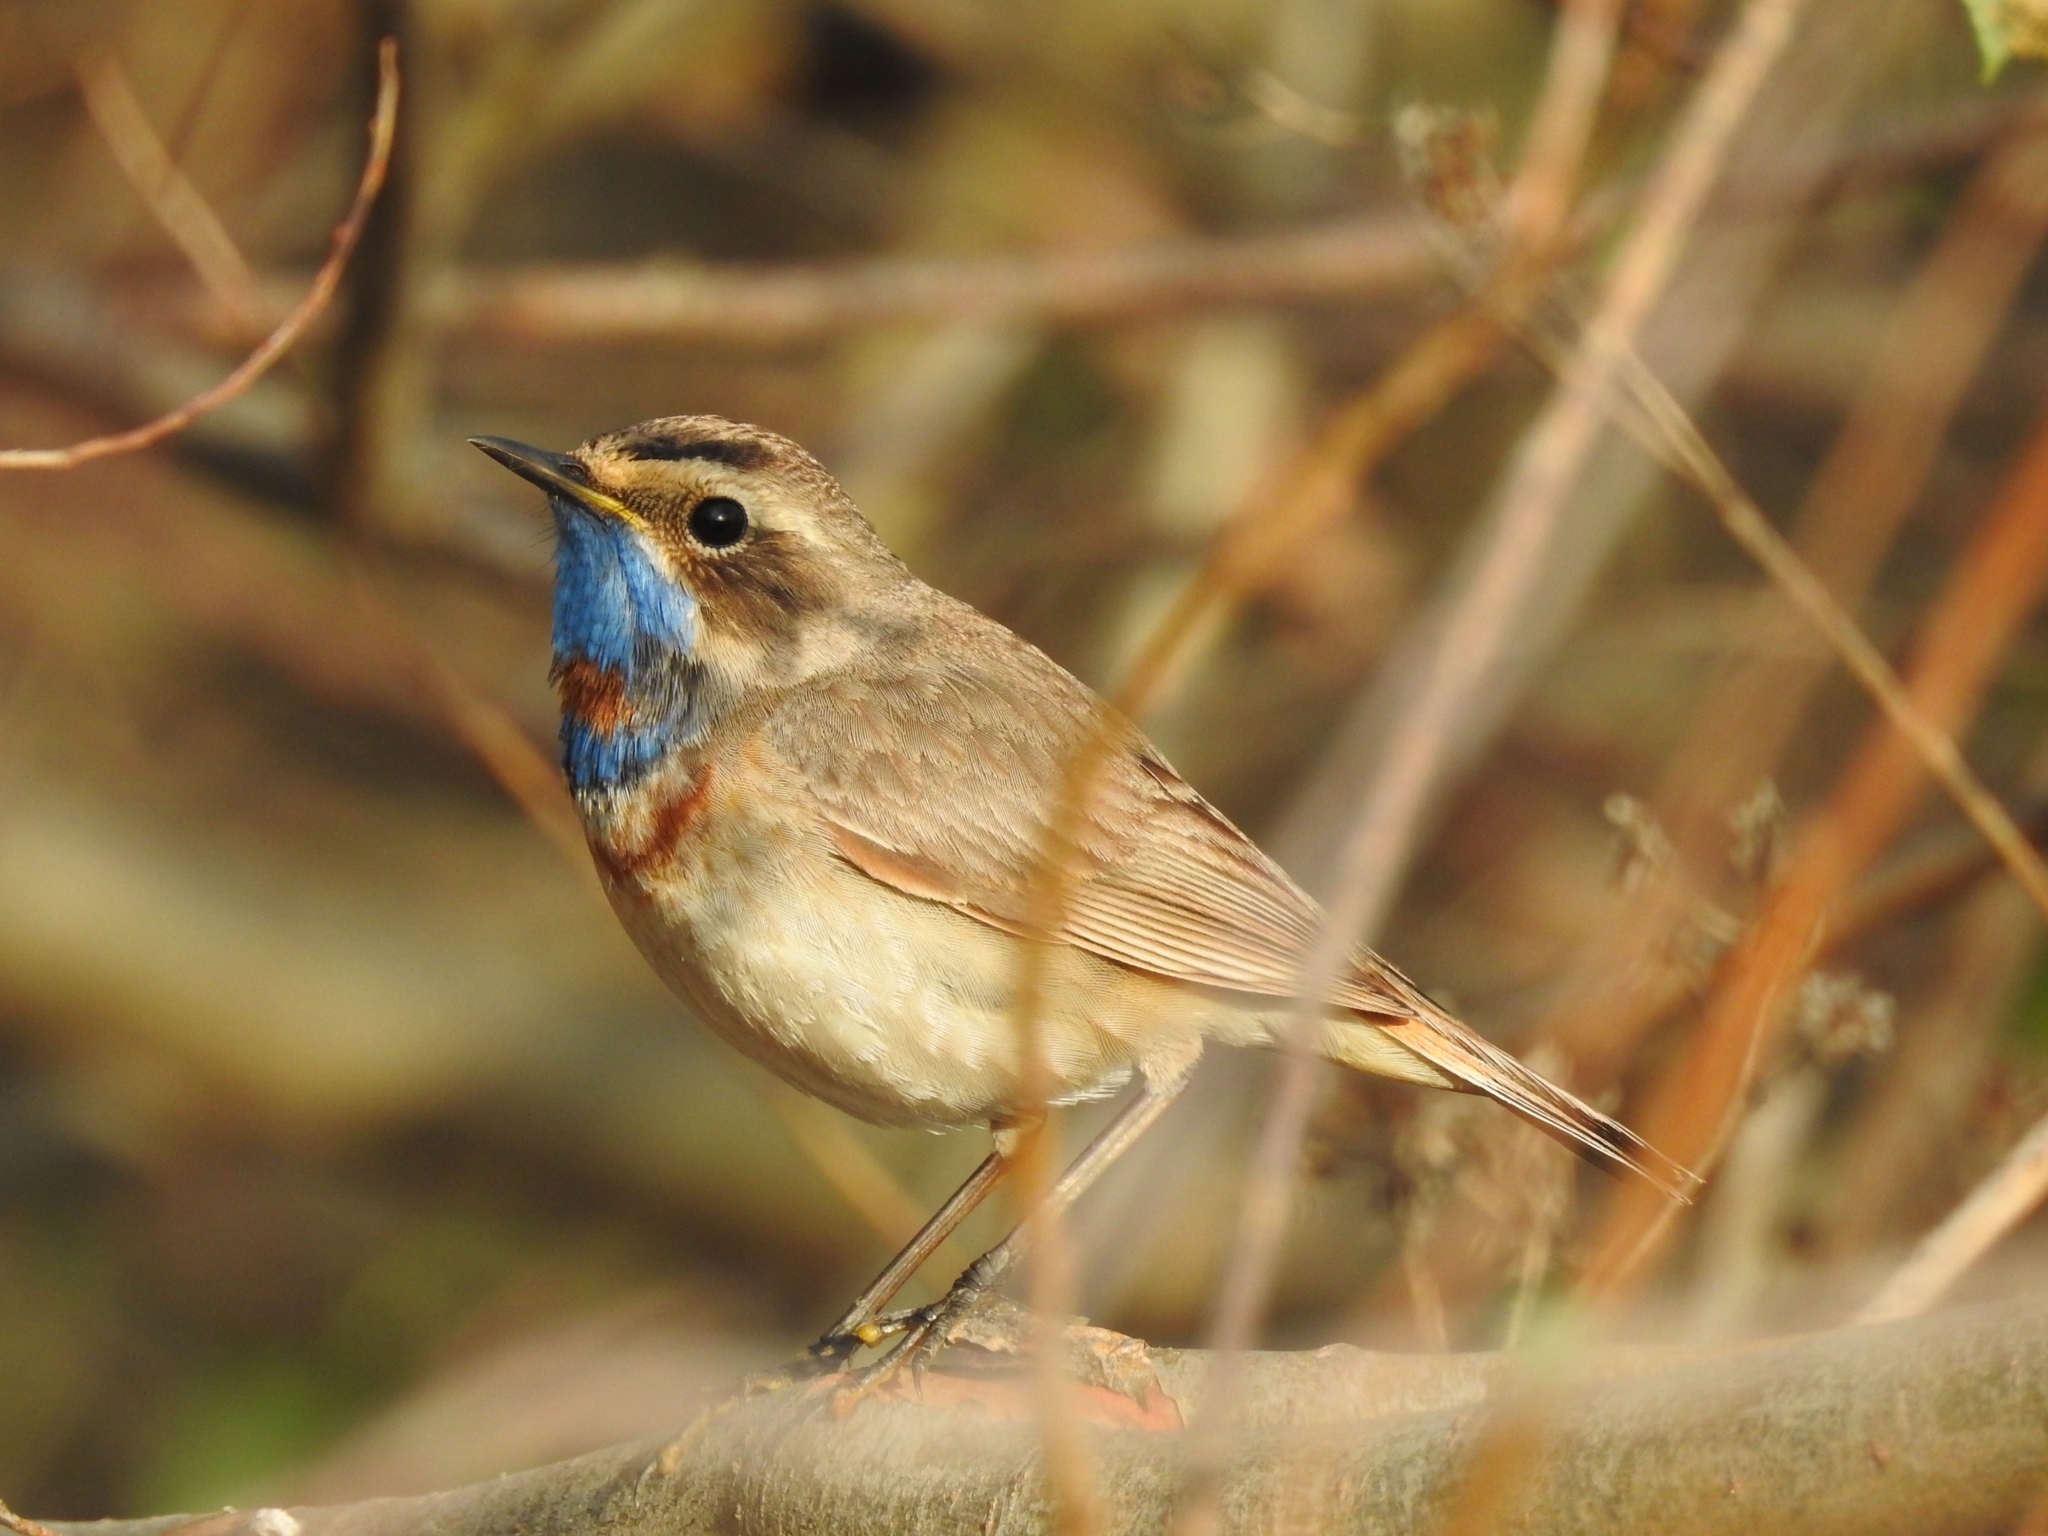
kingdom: Animalia
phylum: Chordata
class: Aves
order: Passeriformes
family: Muscicapidae
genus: Luscinia
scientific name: Luscinia svecica
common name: Bluethroat
